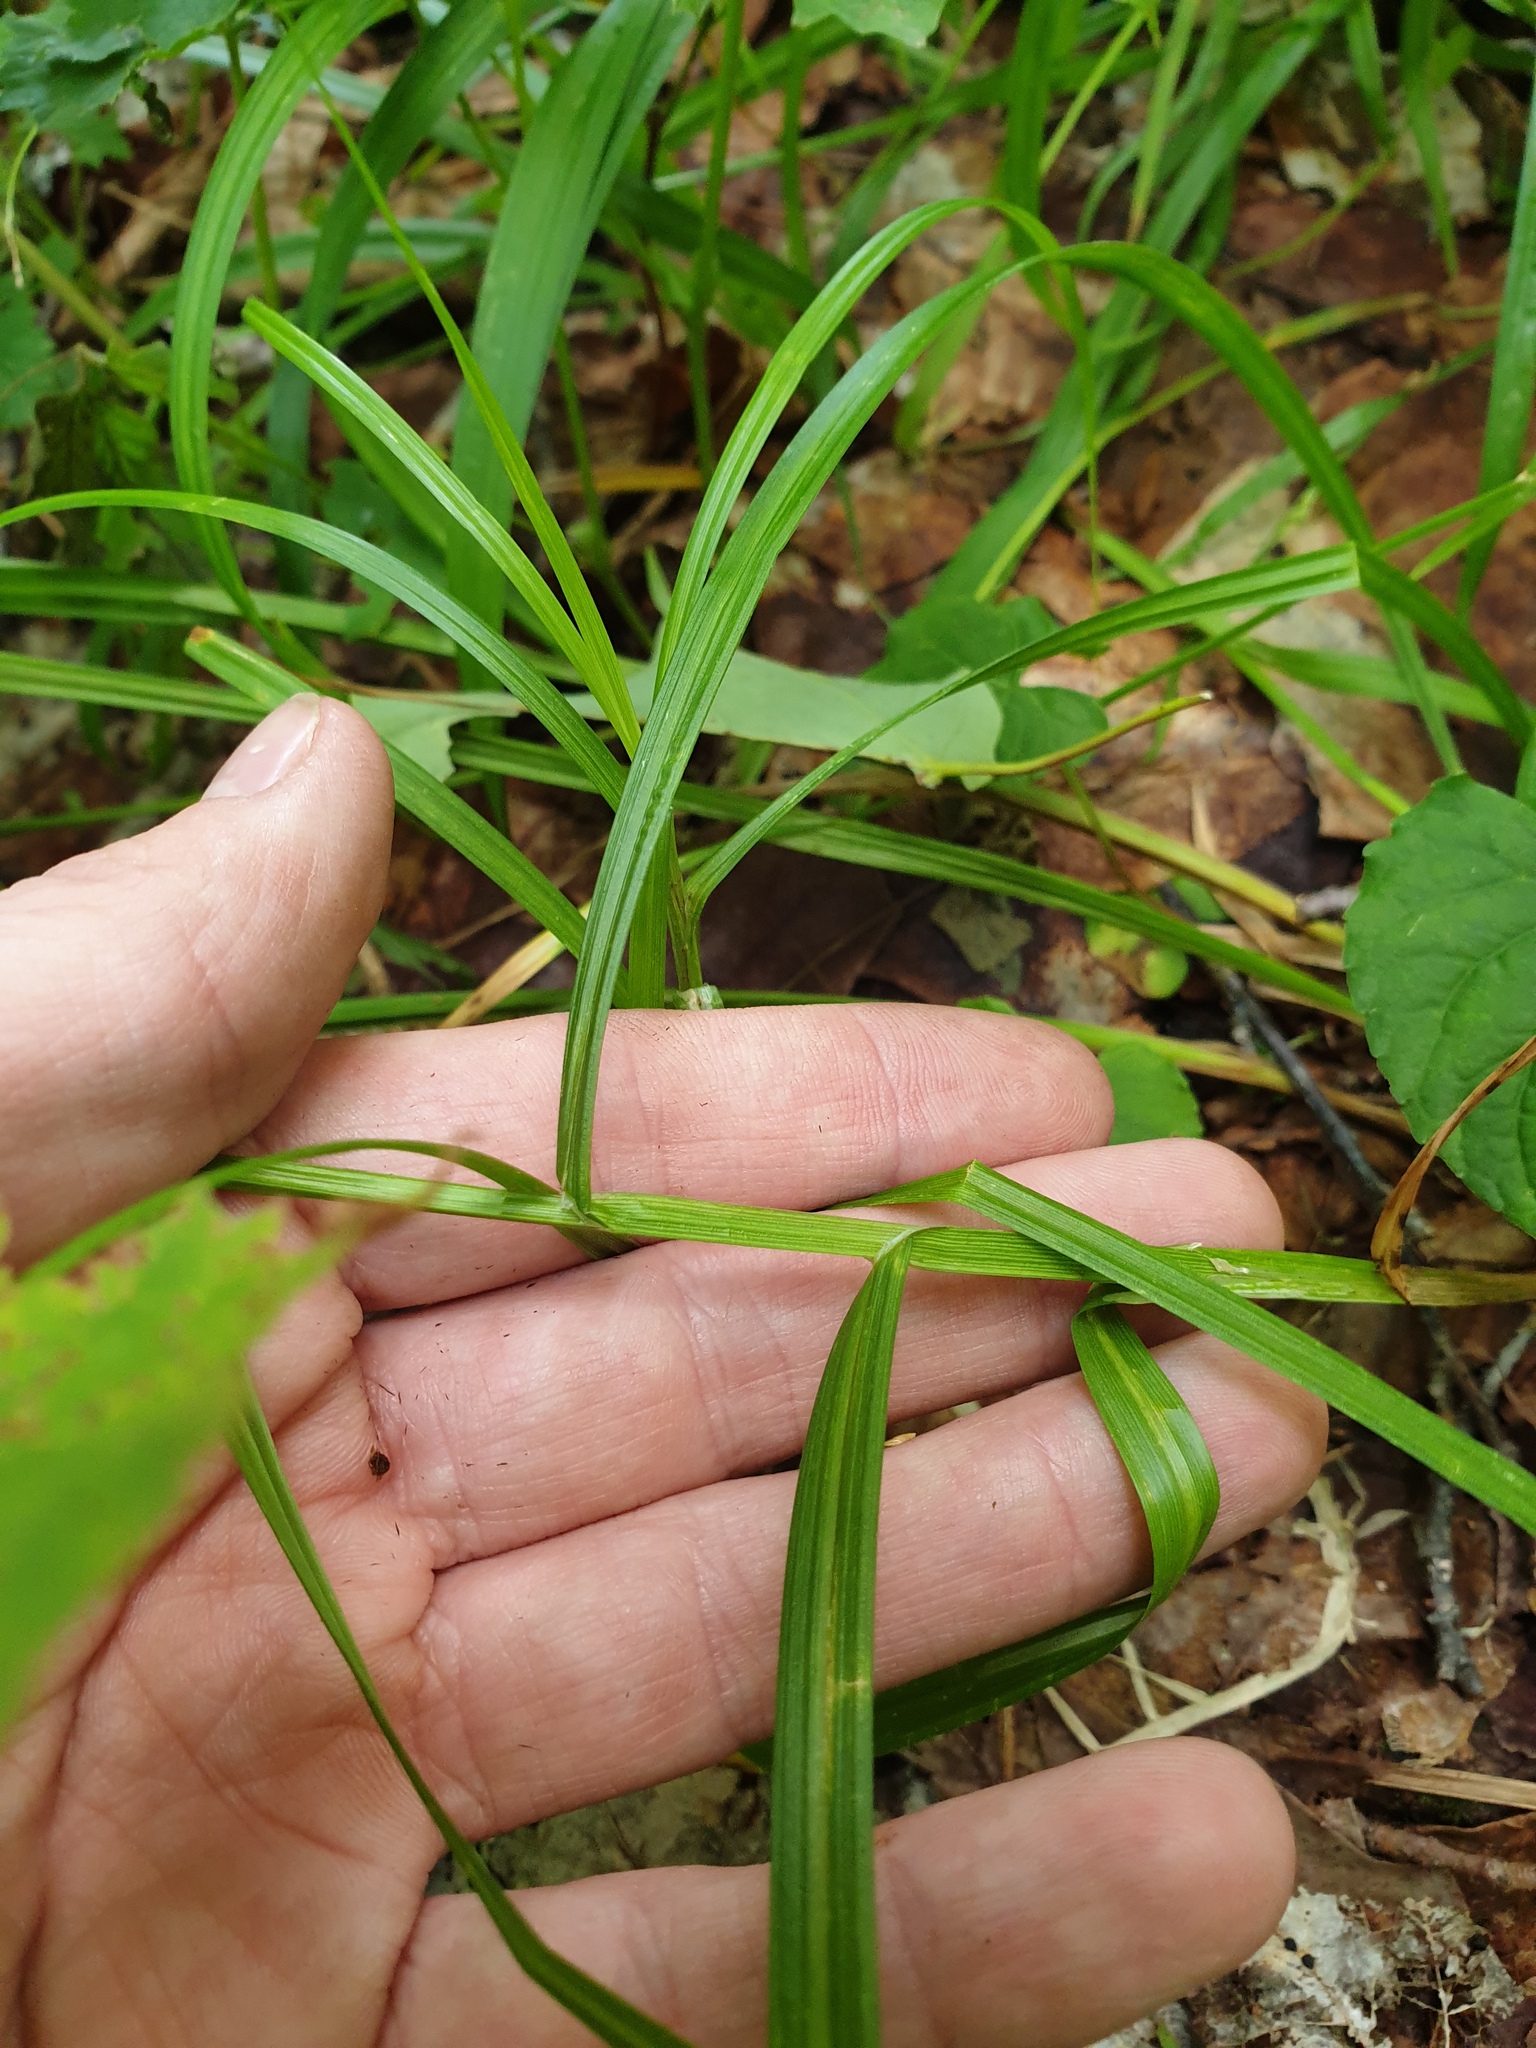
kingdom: Plantae
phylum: Tracheophyta
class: Liliopsida
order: Poales
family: Cyperaceae
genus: Carex
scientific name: Carex projecta
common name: Loose-headed oval sedge
